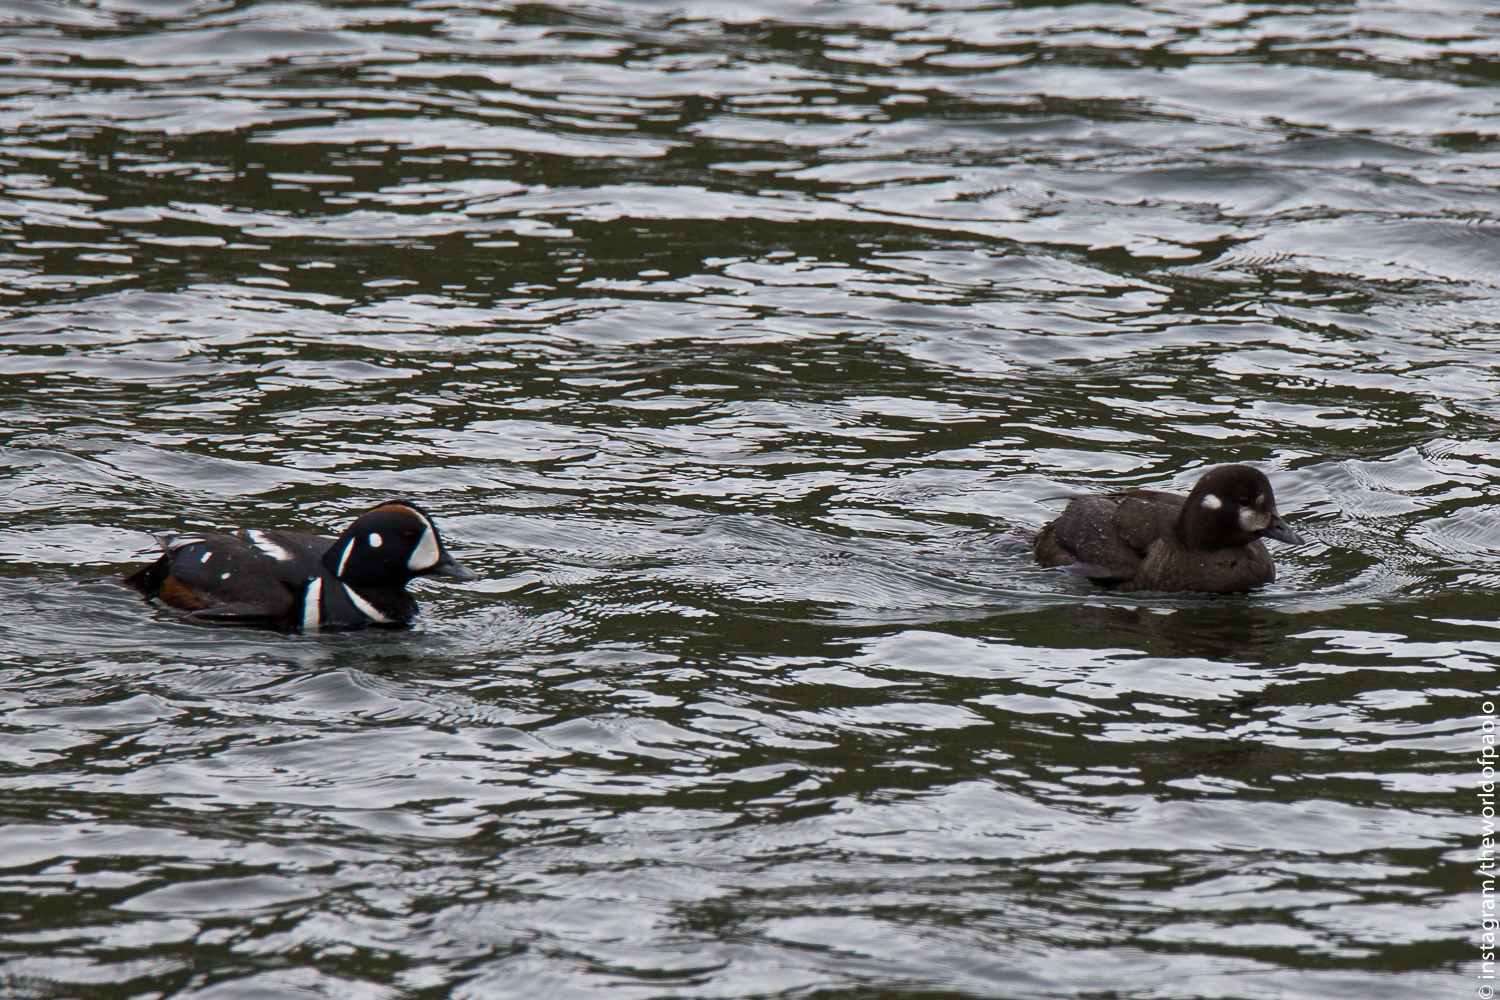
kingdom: Animalia
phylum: Chordata
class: Aves
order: Anseriformes
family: Anatidae
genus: Histrionicus
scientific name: Histrionicus histrionicus
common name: Harlequin duck
